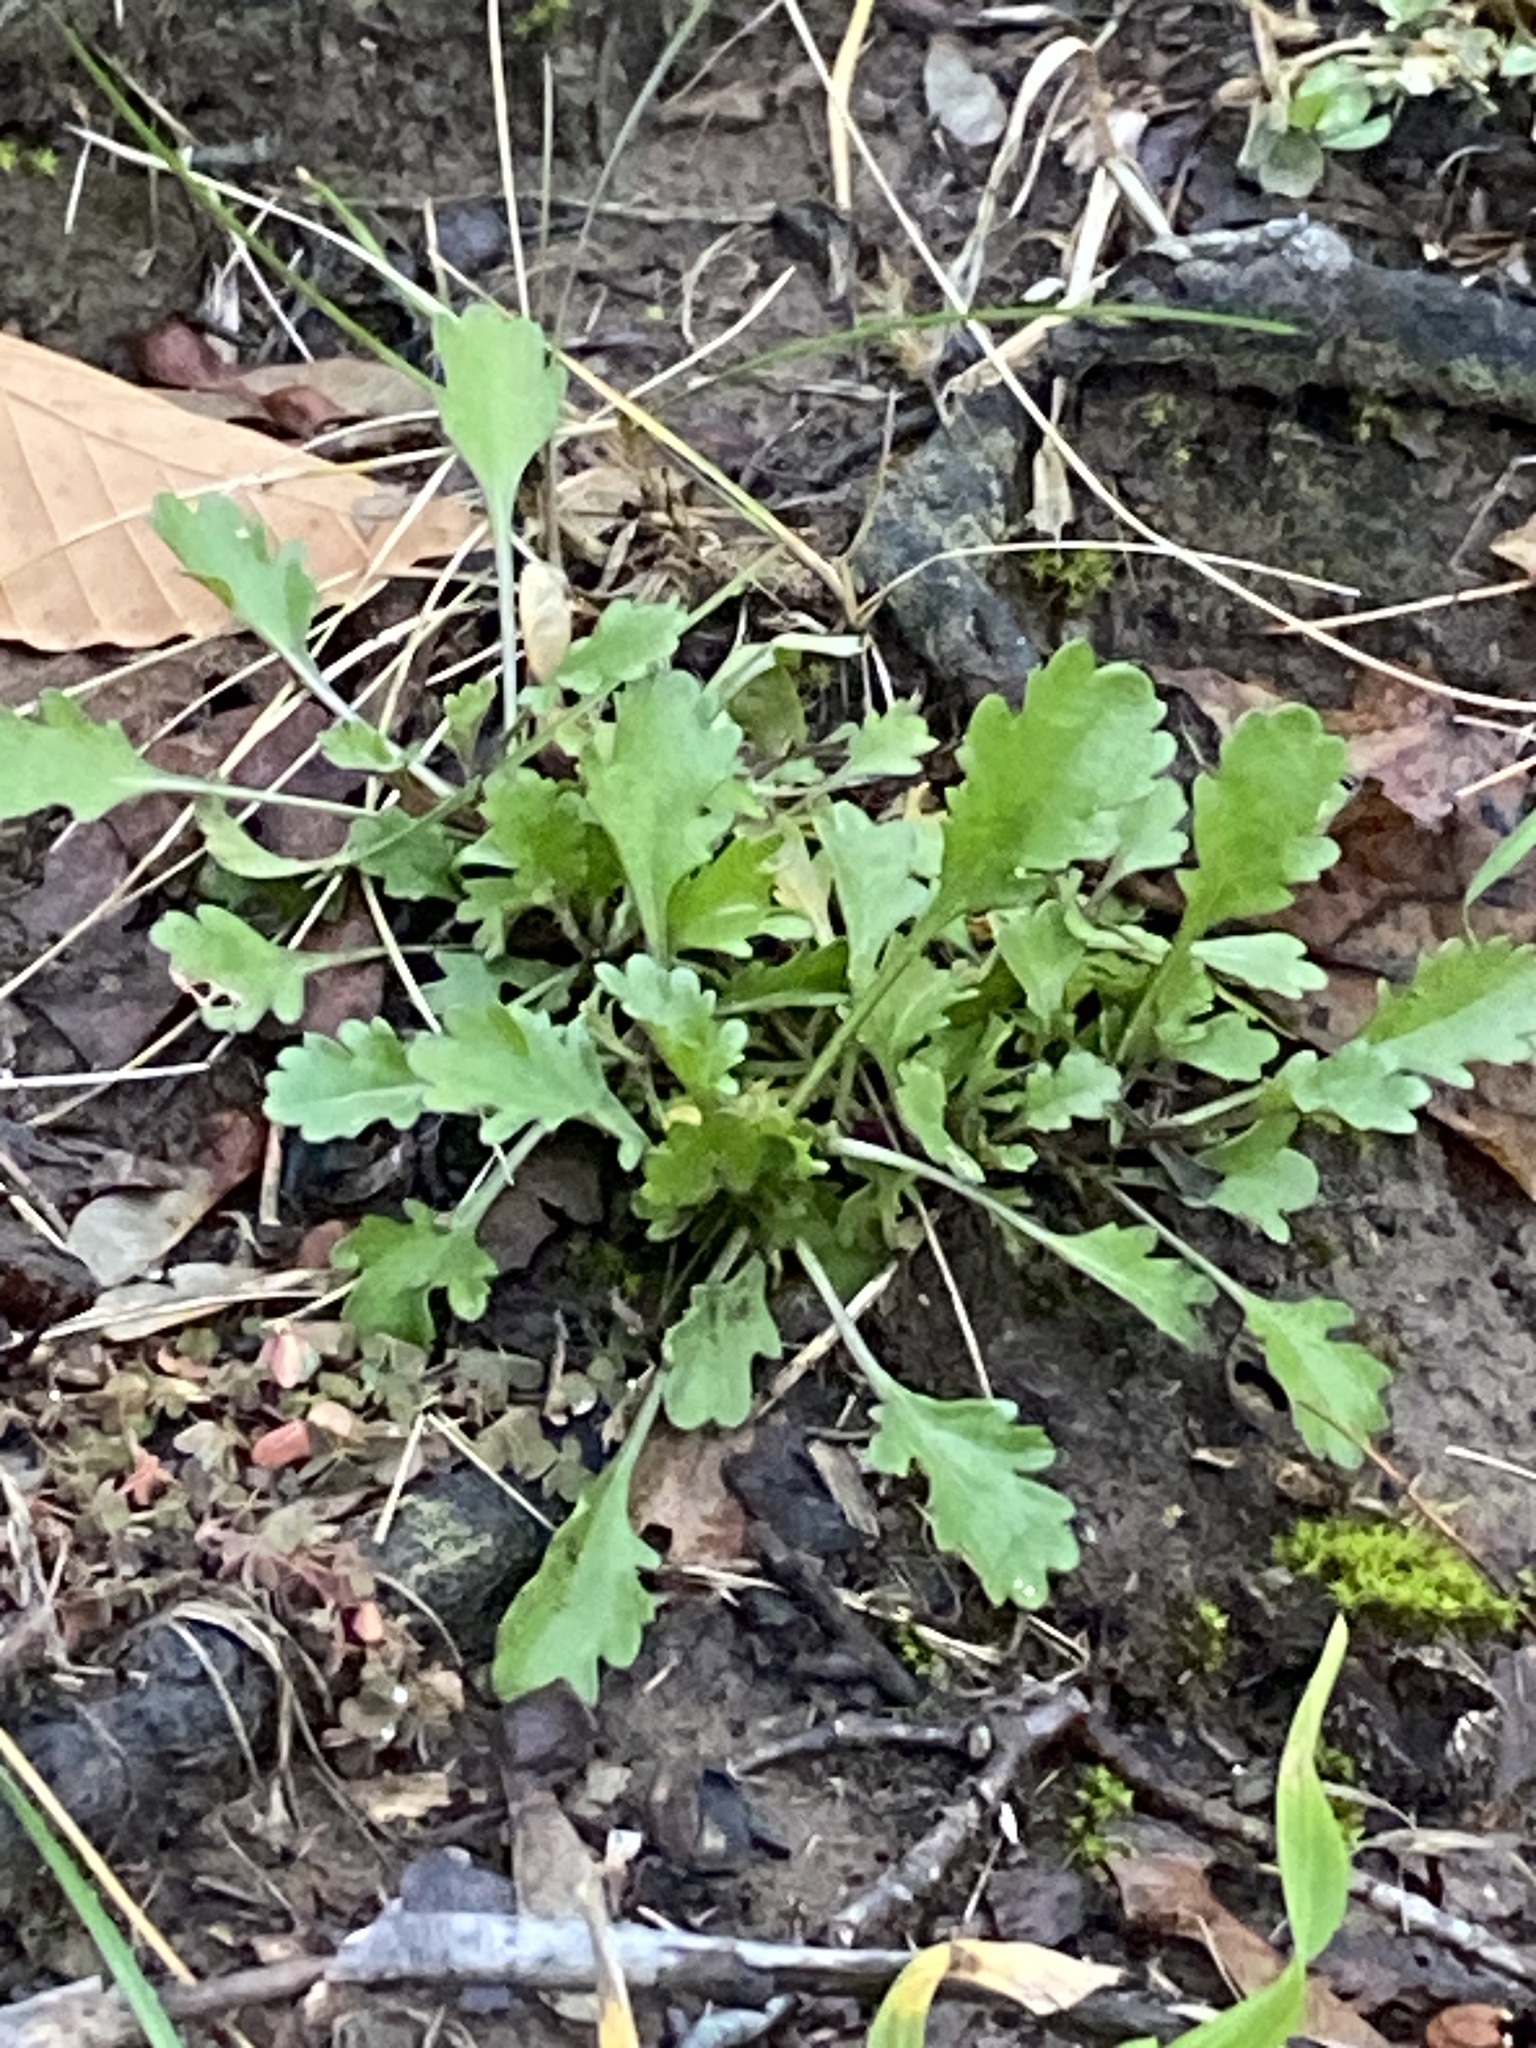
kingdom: Plantae
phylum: Tracheophyta
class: Magnoliopsida
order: Asterales
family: Asteraceae
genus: Leucanthemum
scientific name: Leucanthemum vulgare
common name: Oxeye daisy
